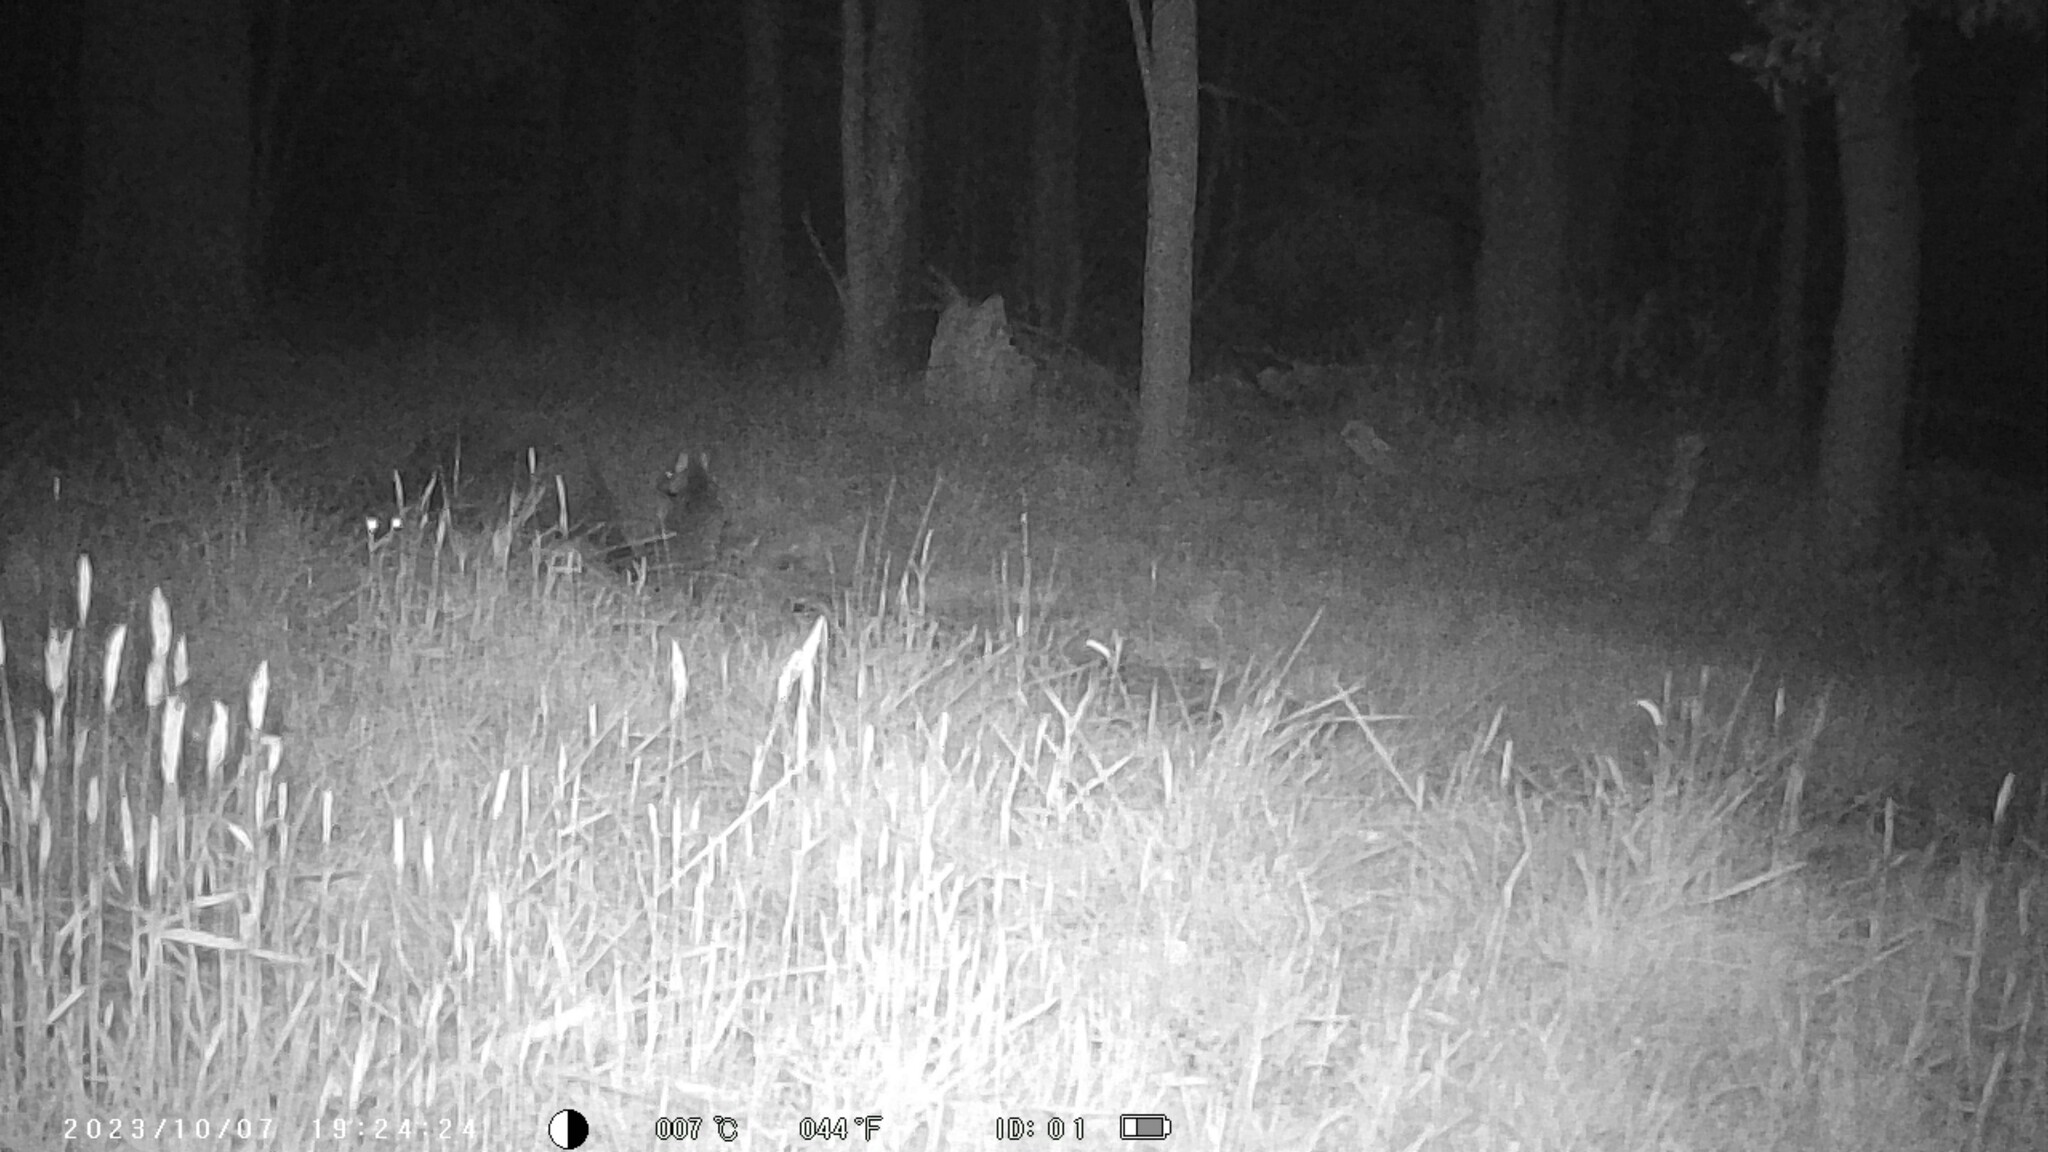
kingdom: Animalia
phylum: Chordata
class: Mammalia
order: Diprotodontia
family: Macropodidae
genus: Wallabia
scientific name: Wallabia bicolor
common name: Swamp wallaby
